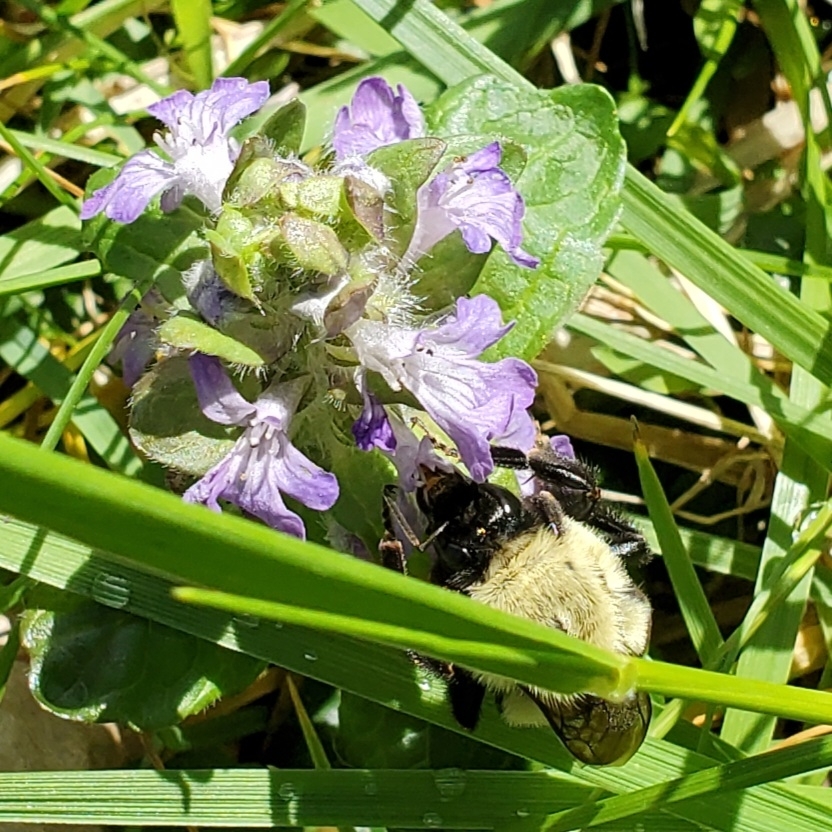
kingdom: Animalia
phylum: Arthropoda
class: Insecta
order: Hymenoptera
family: Apidae
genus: Bombus
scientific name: Bombus impatiens
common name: Common eastern bumble bee
